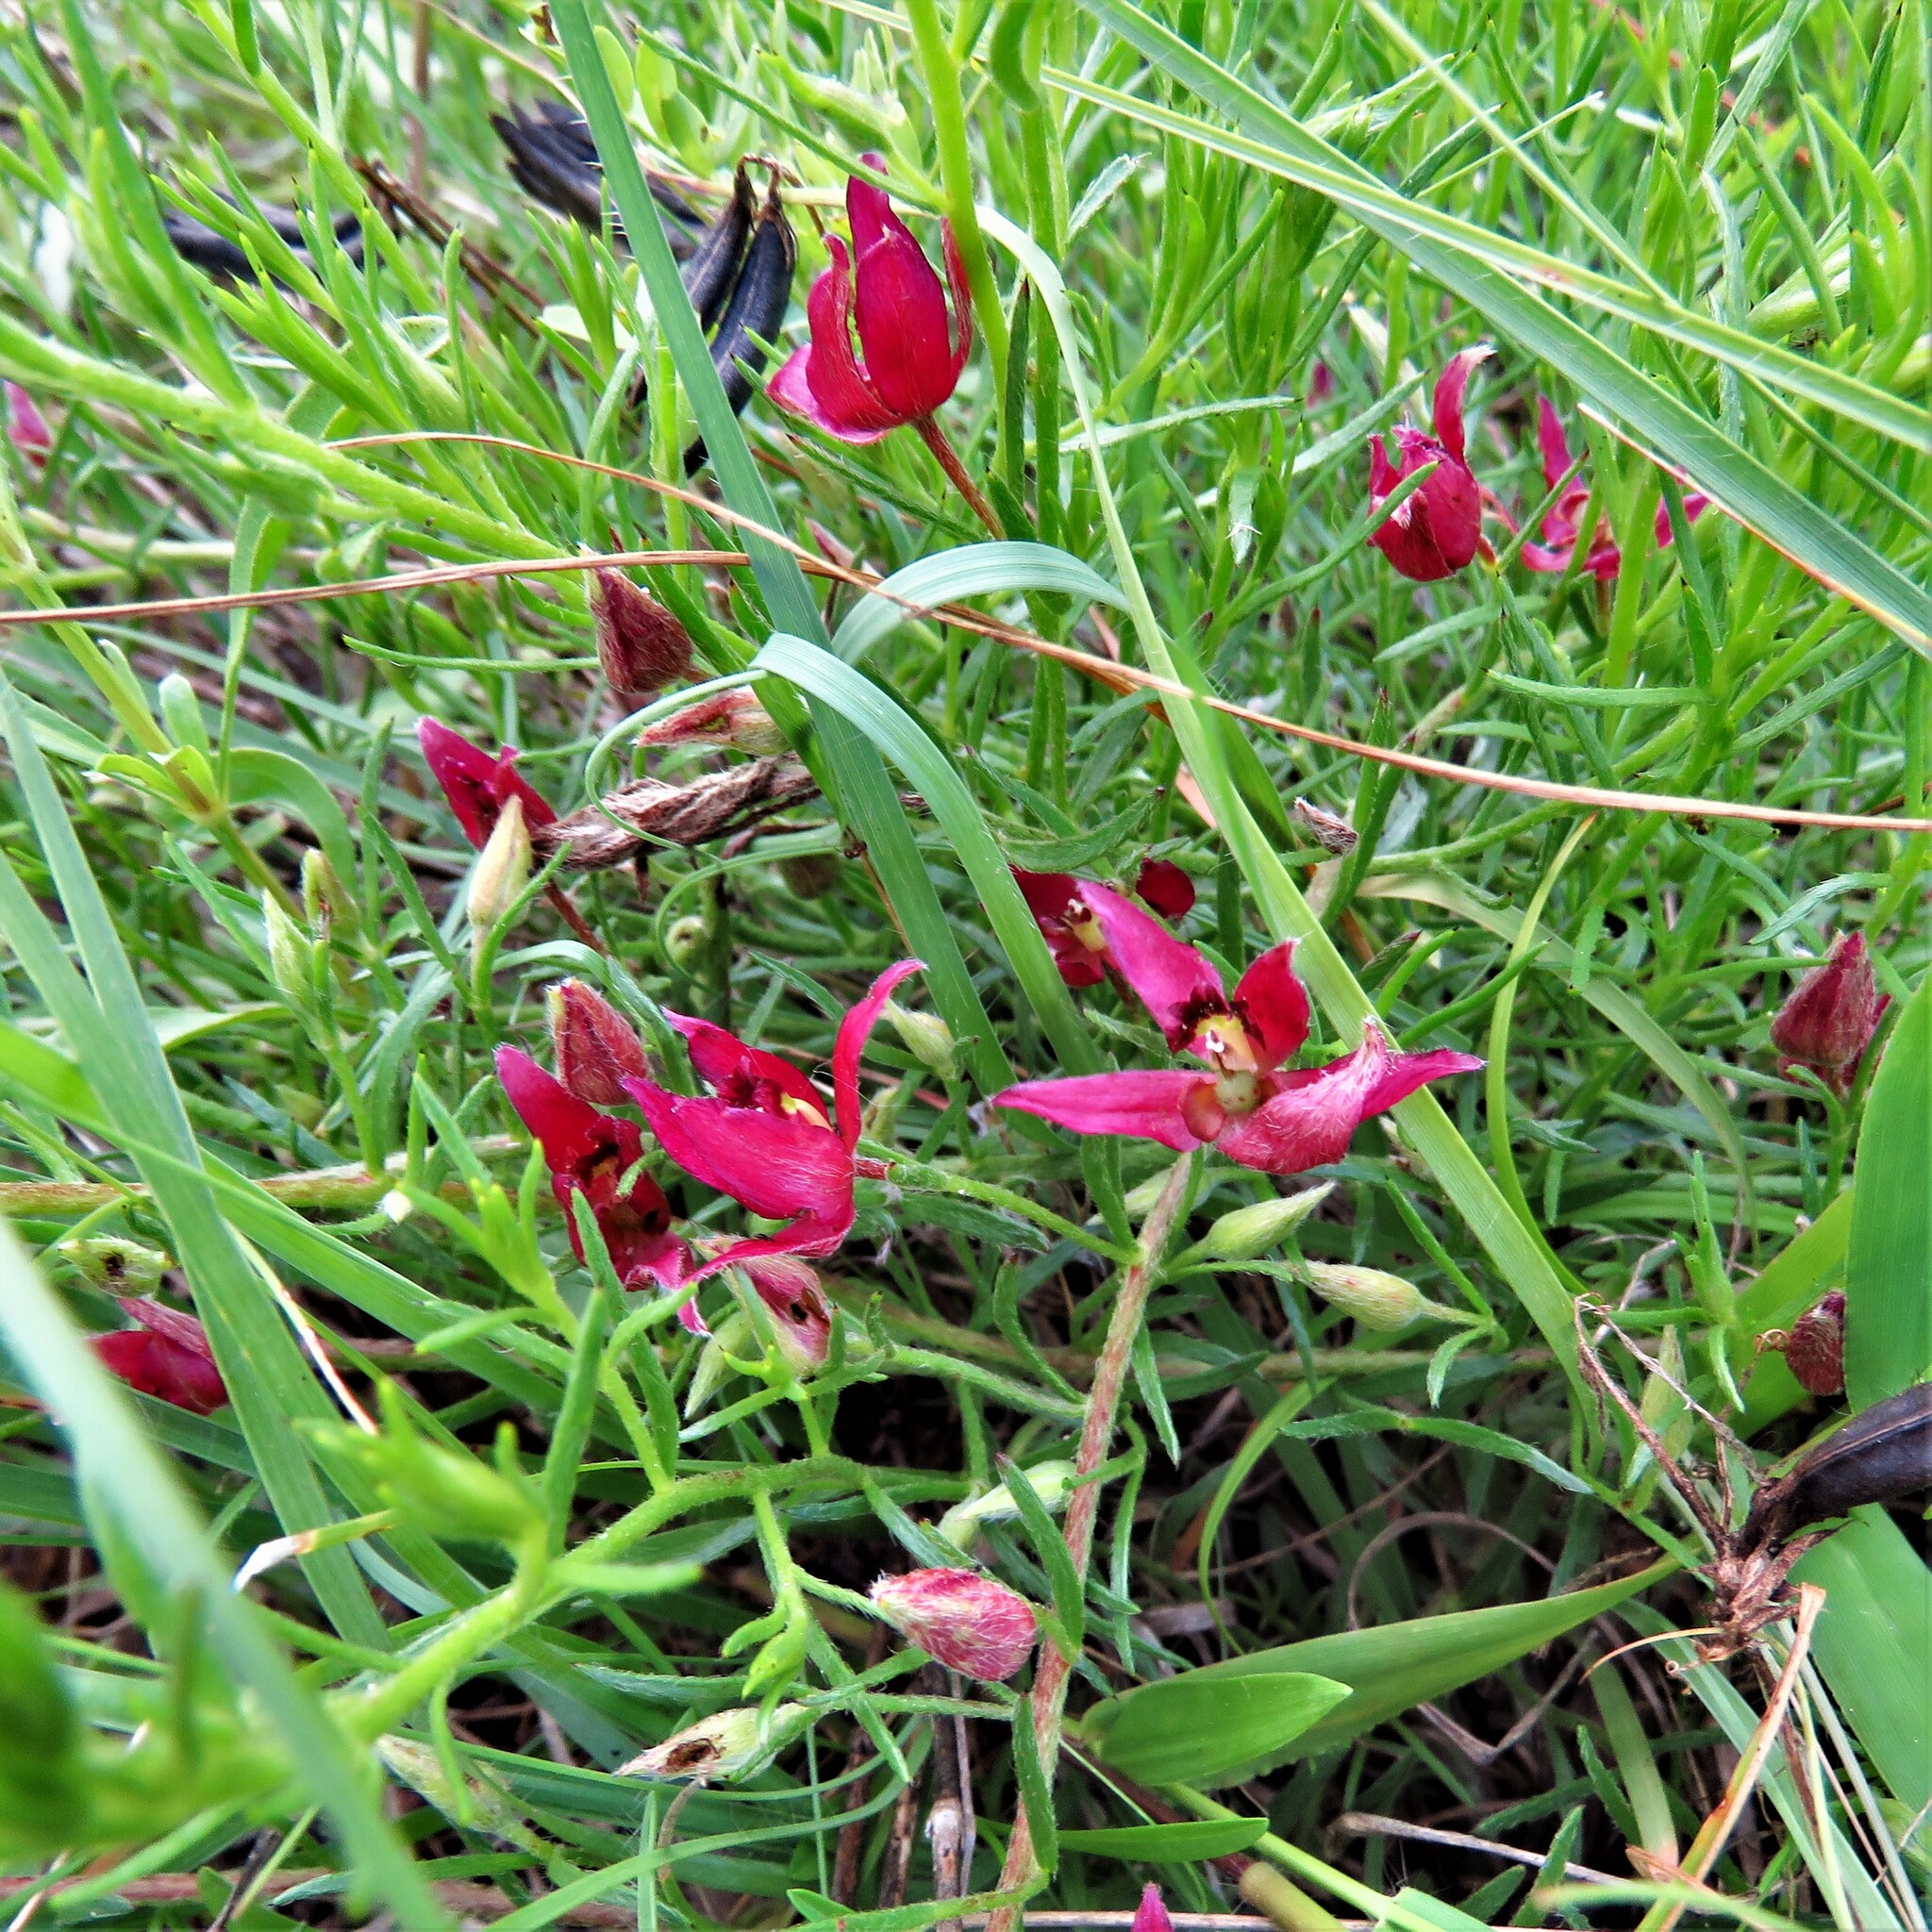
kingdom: Plantae
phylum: Tracheophyta
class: Magnoliopsida
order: Zygophyllales
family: Krameriaceae
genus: Krameria
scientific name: Krameria lanceolata
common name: Ratany
